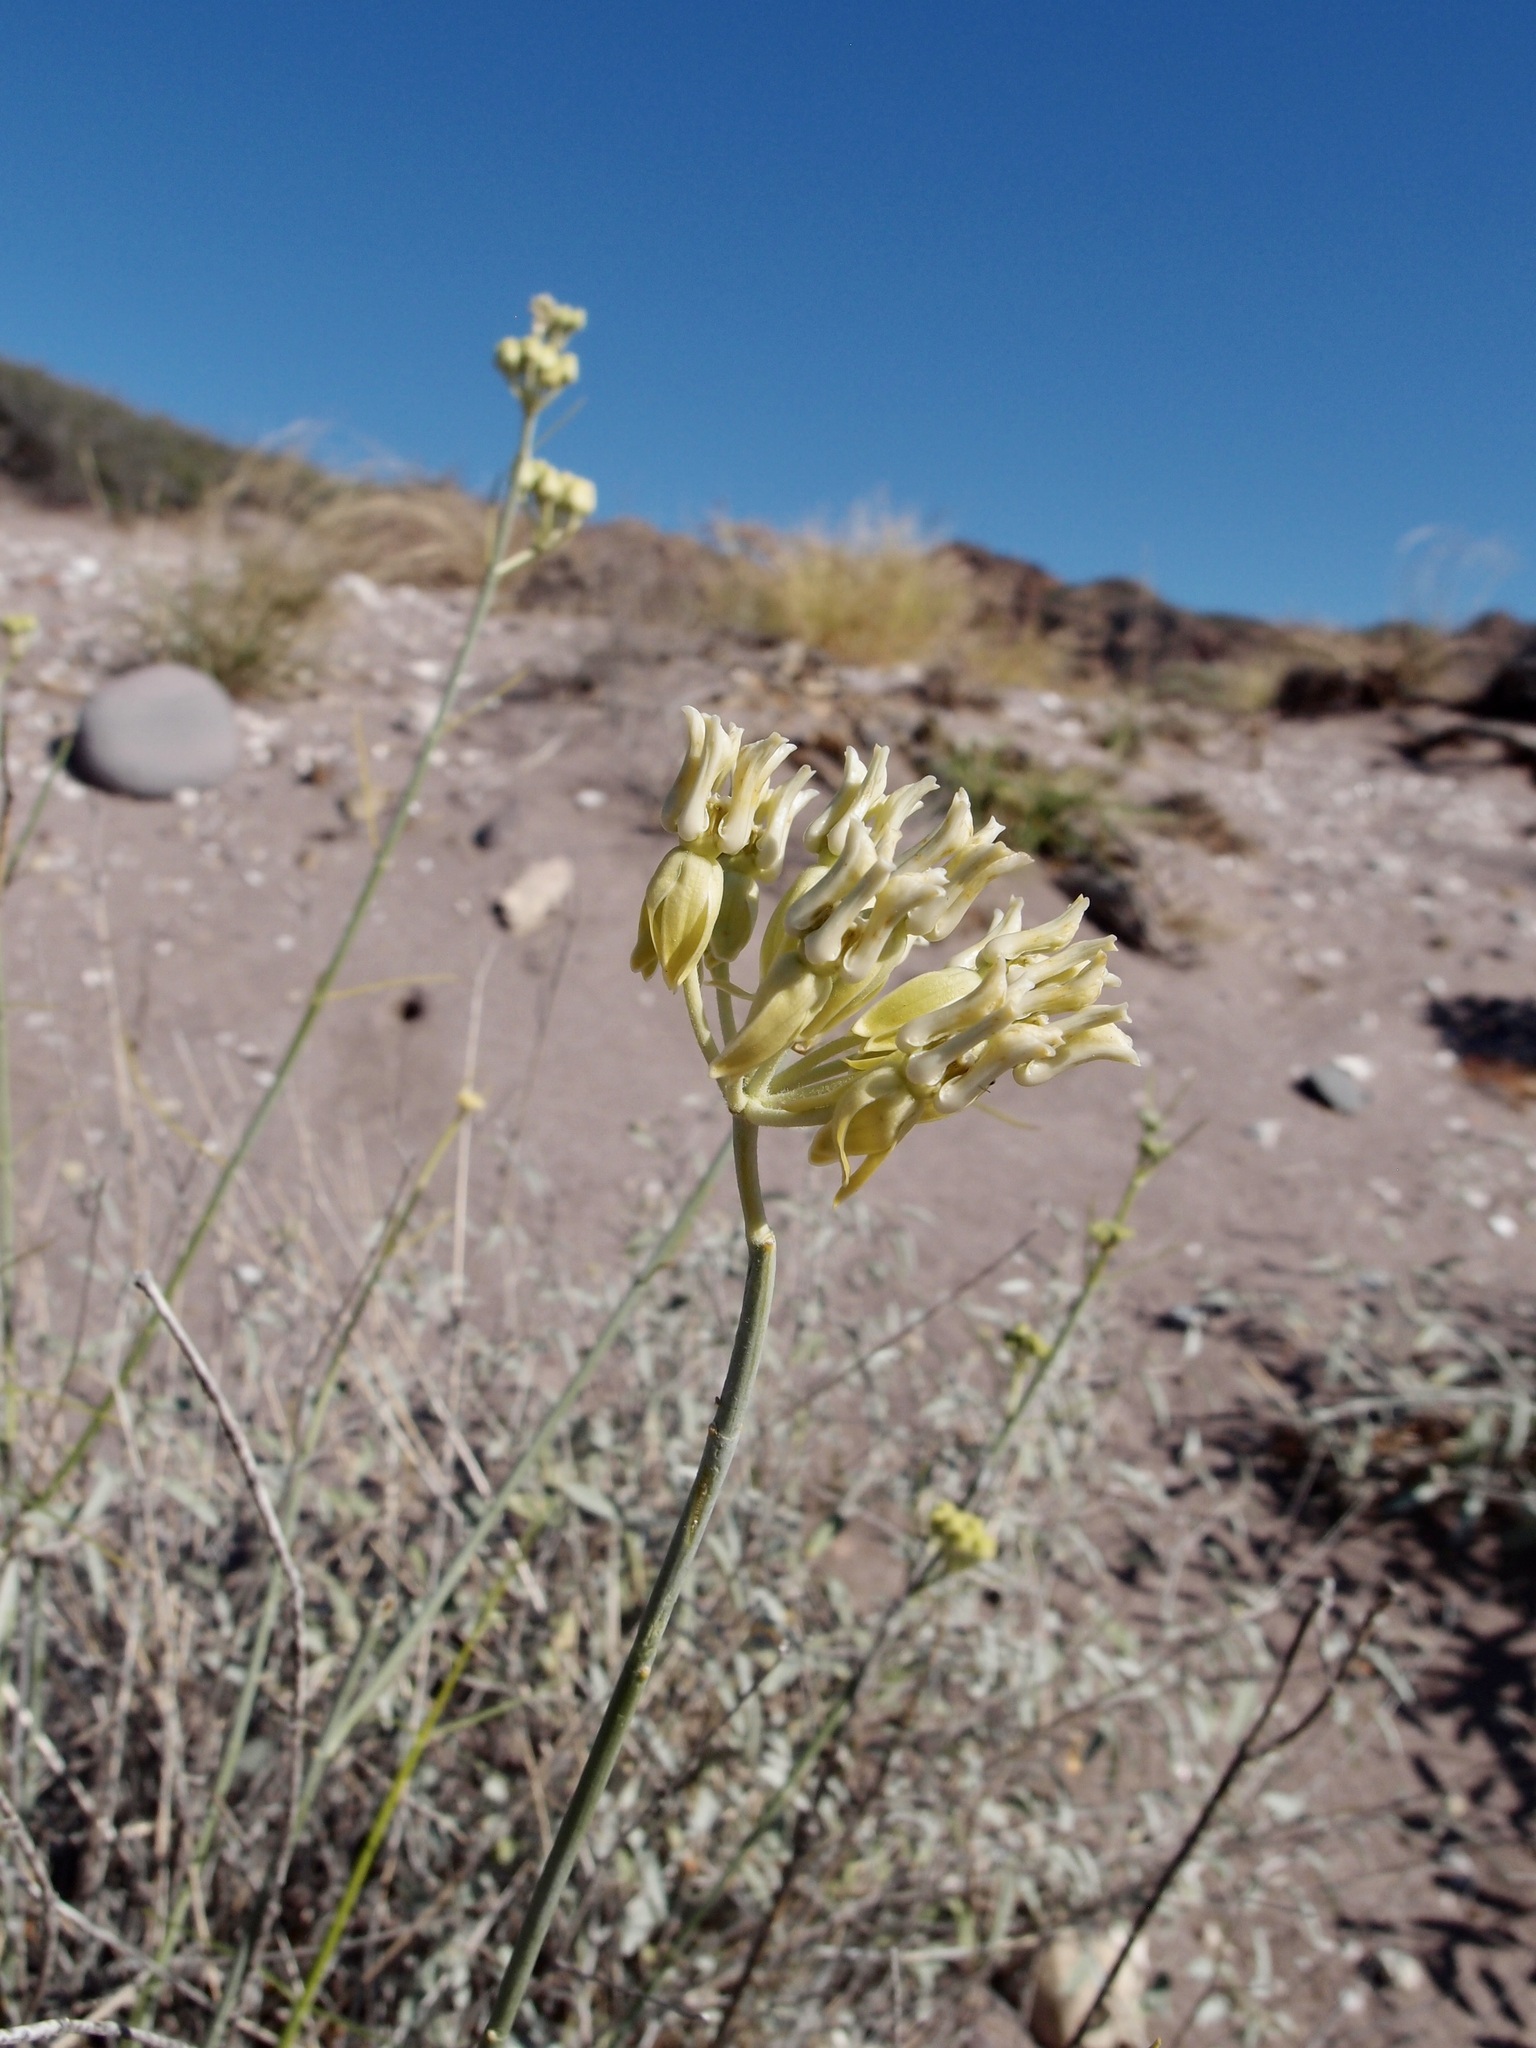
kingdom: Plantae
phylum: Tracheophyta
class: Magnoliopsida
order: Gentianales
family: Apocynaceae
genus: Asclepias
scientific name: Asclepias subulata
